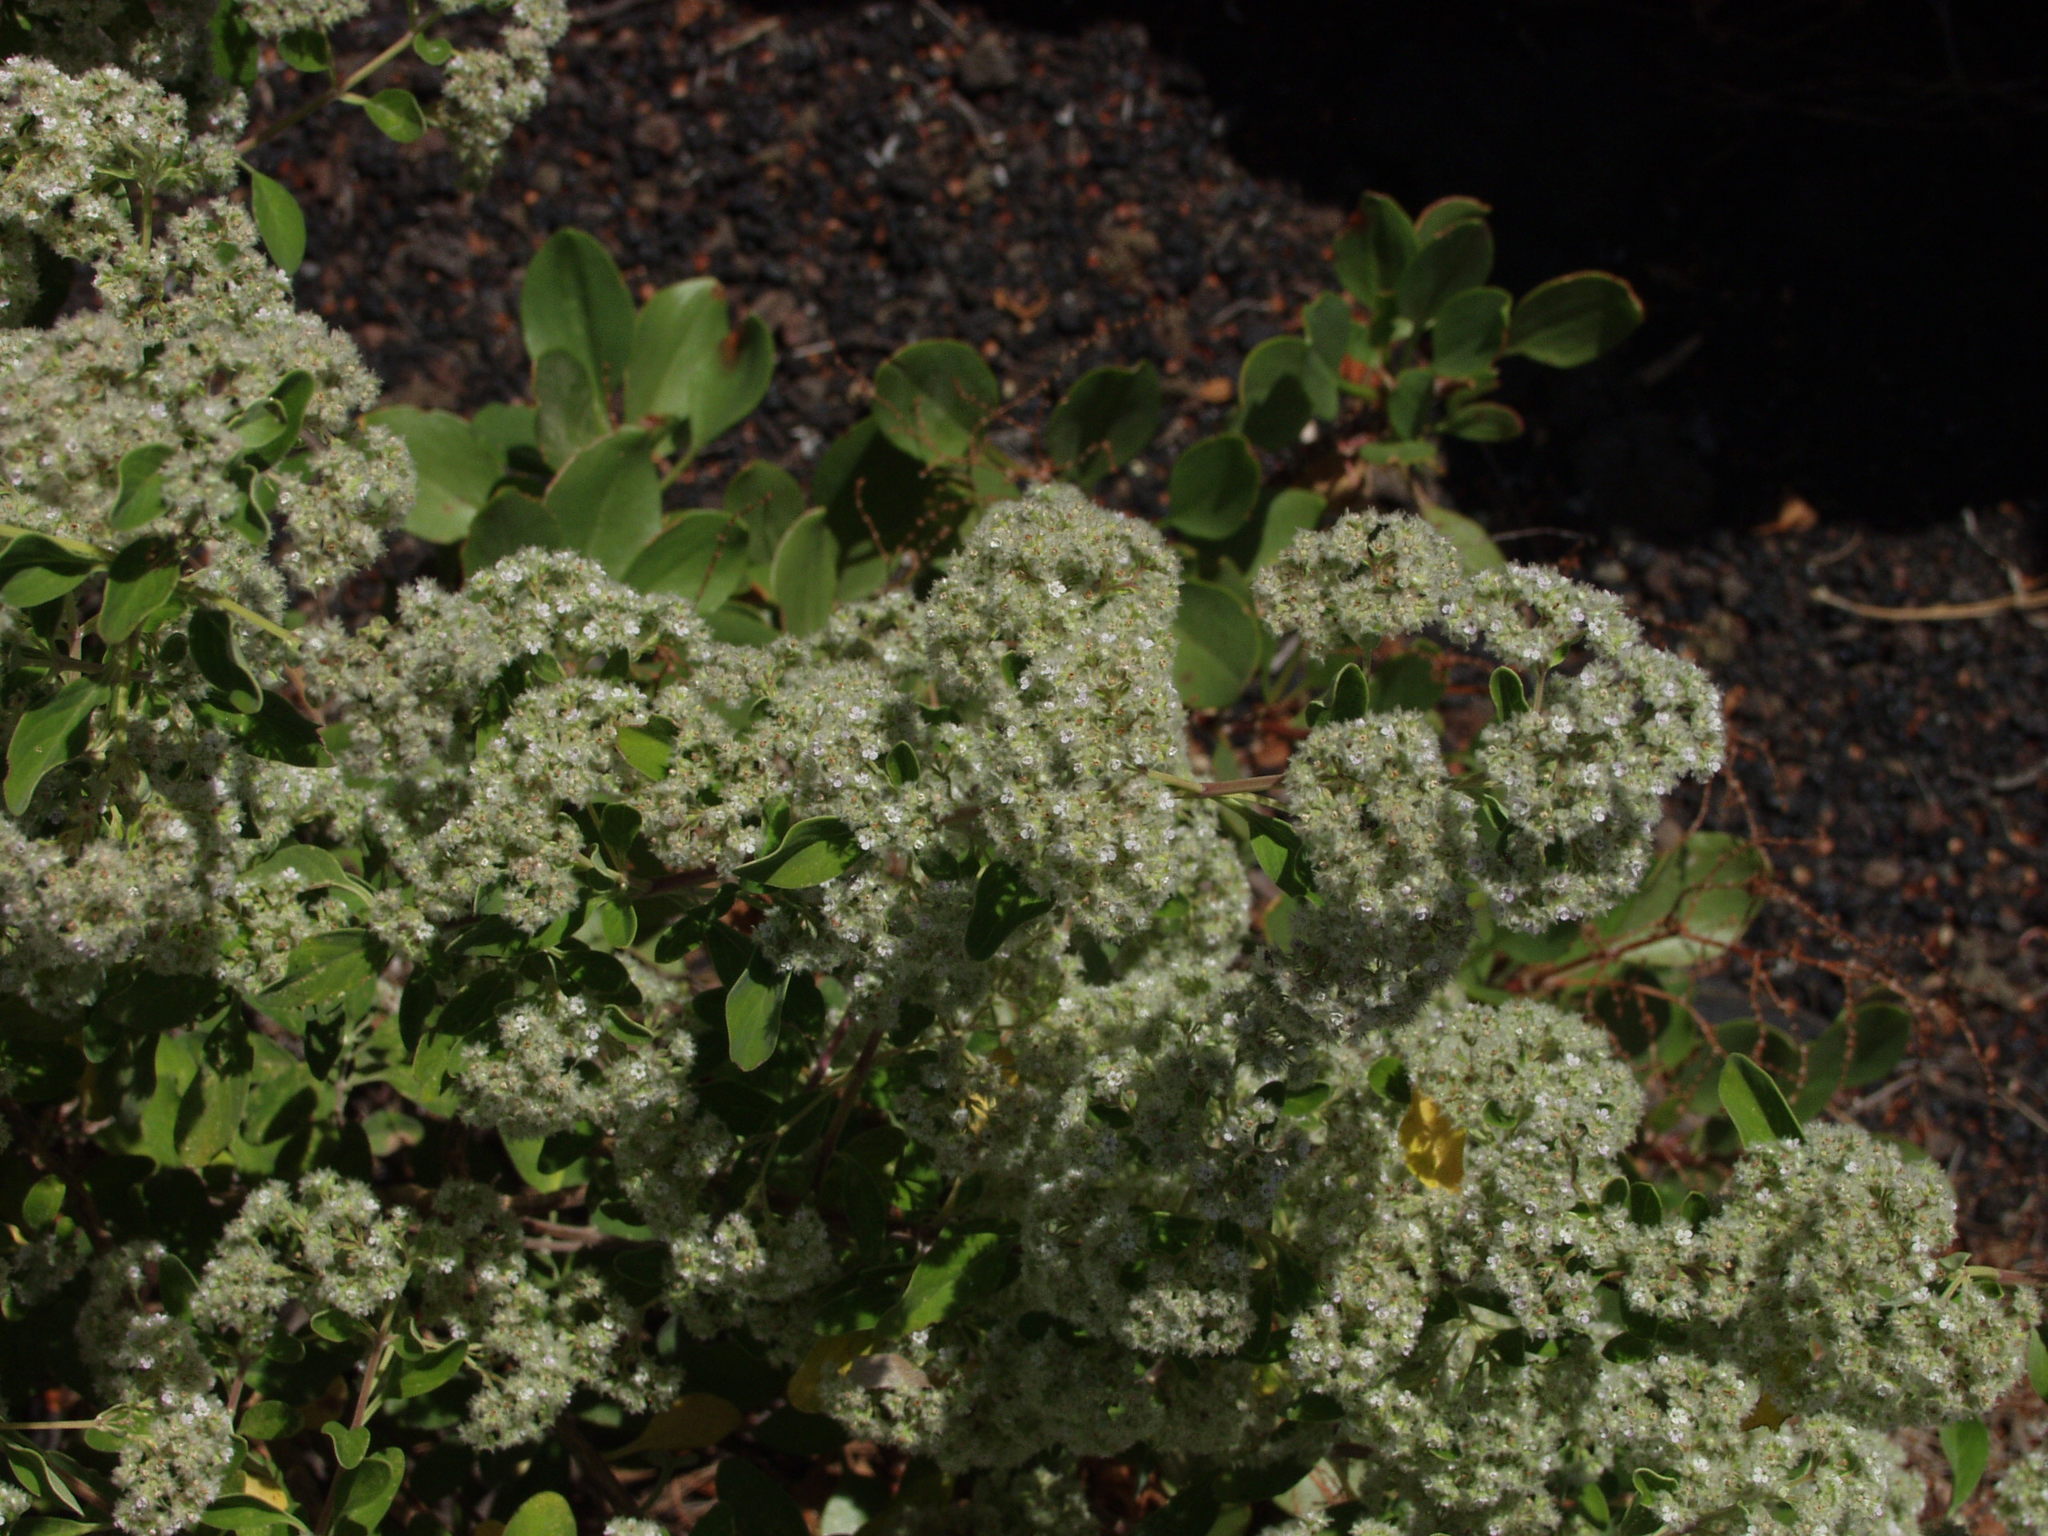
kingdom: Plantae
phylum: Tracheophyta
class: Magnoliopsida
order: Lamiales
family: Lamiaceae
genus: Bystropogon
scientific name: Bystropogon origanifolius
